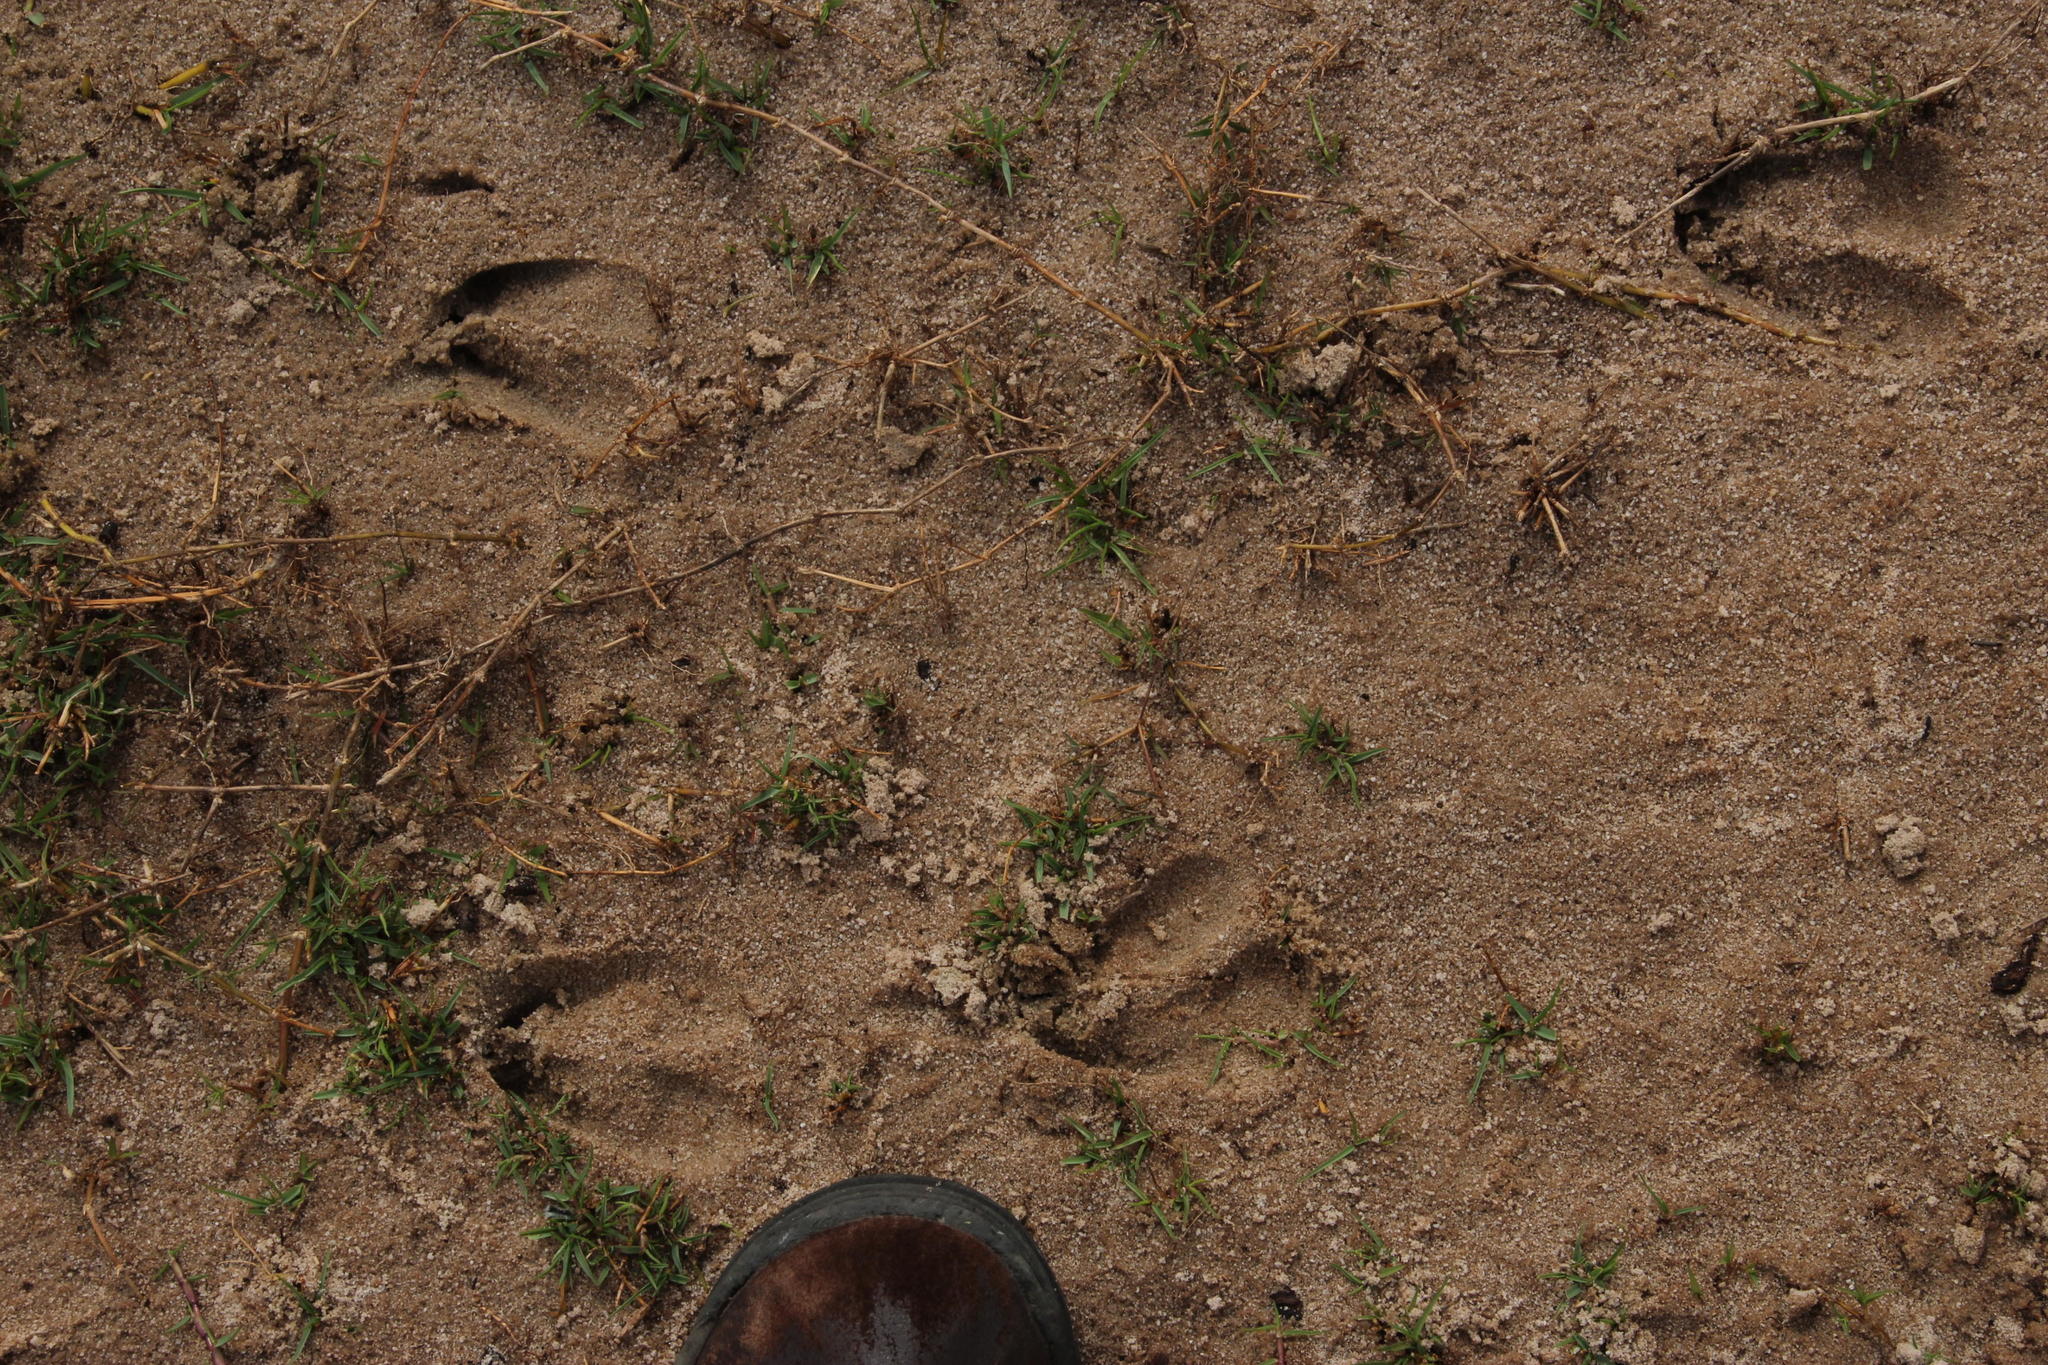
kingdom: Plantae
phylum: Tracheophyta
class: Liliopsida
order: Poales
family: Poaceae
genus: Cynodon
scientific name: Cynodon dactylon
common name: Bermuda grass
